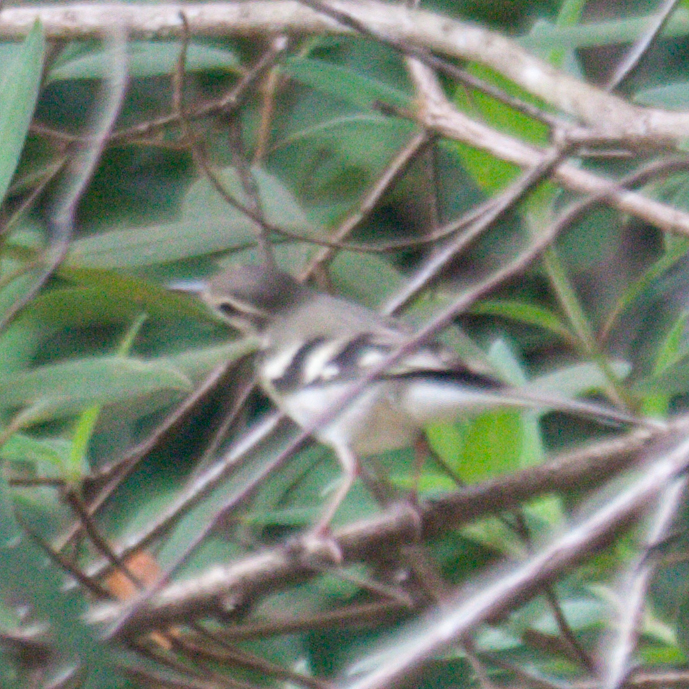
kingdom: Animalia
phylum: Chordata
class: Aves
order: Passeriformes
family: Motacillidae
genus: Dendronanthus
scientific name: Dendronanthus indicus
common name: Forest wagtail
